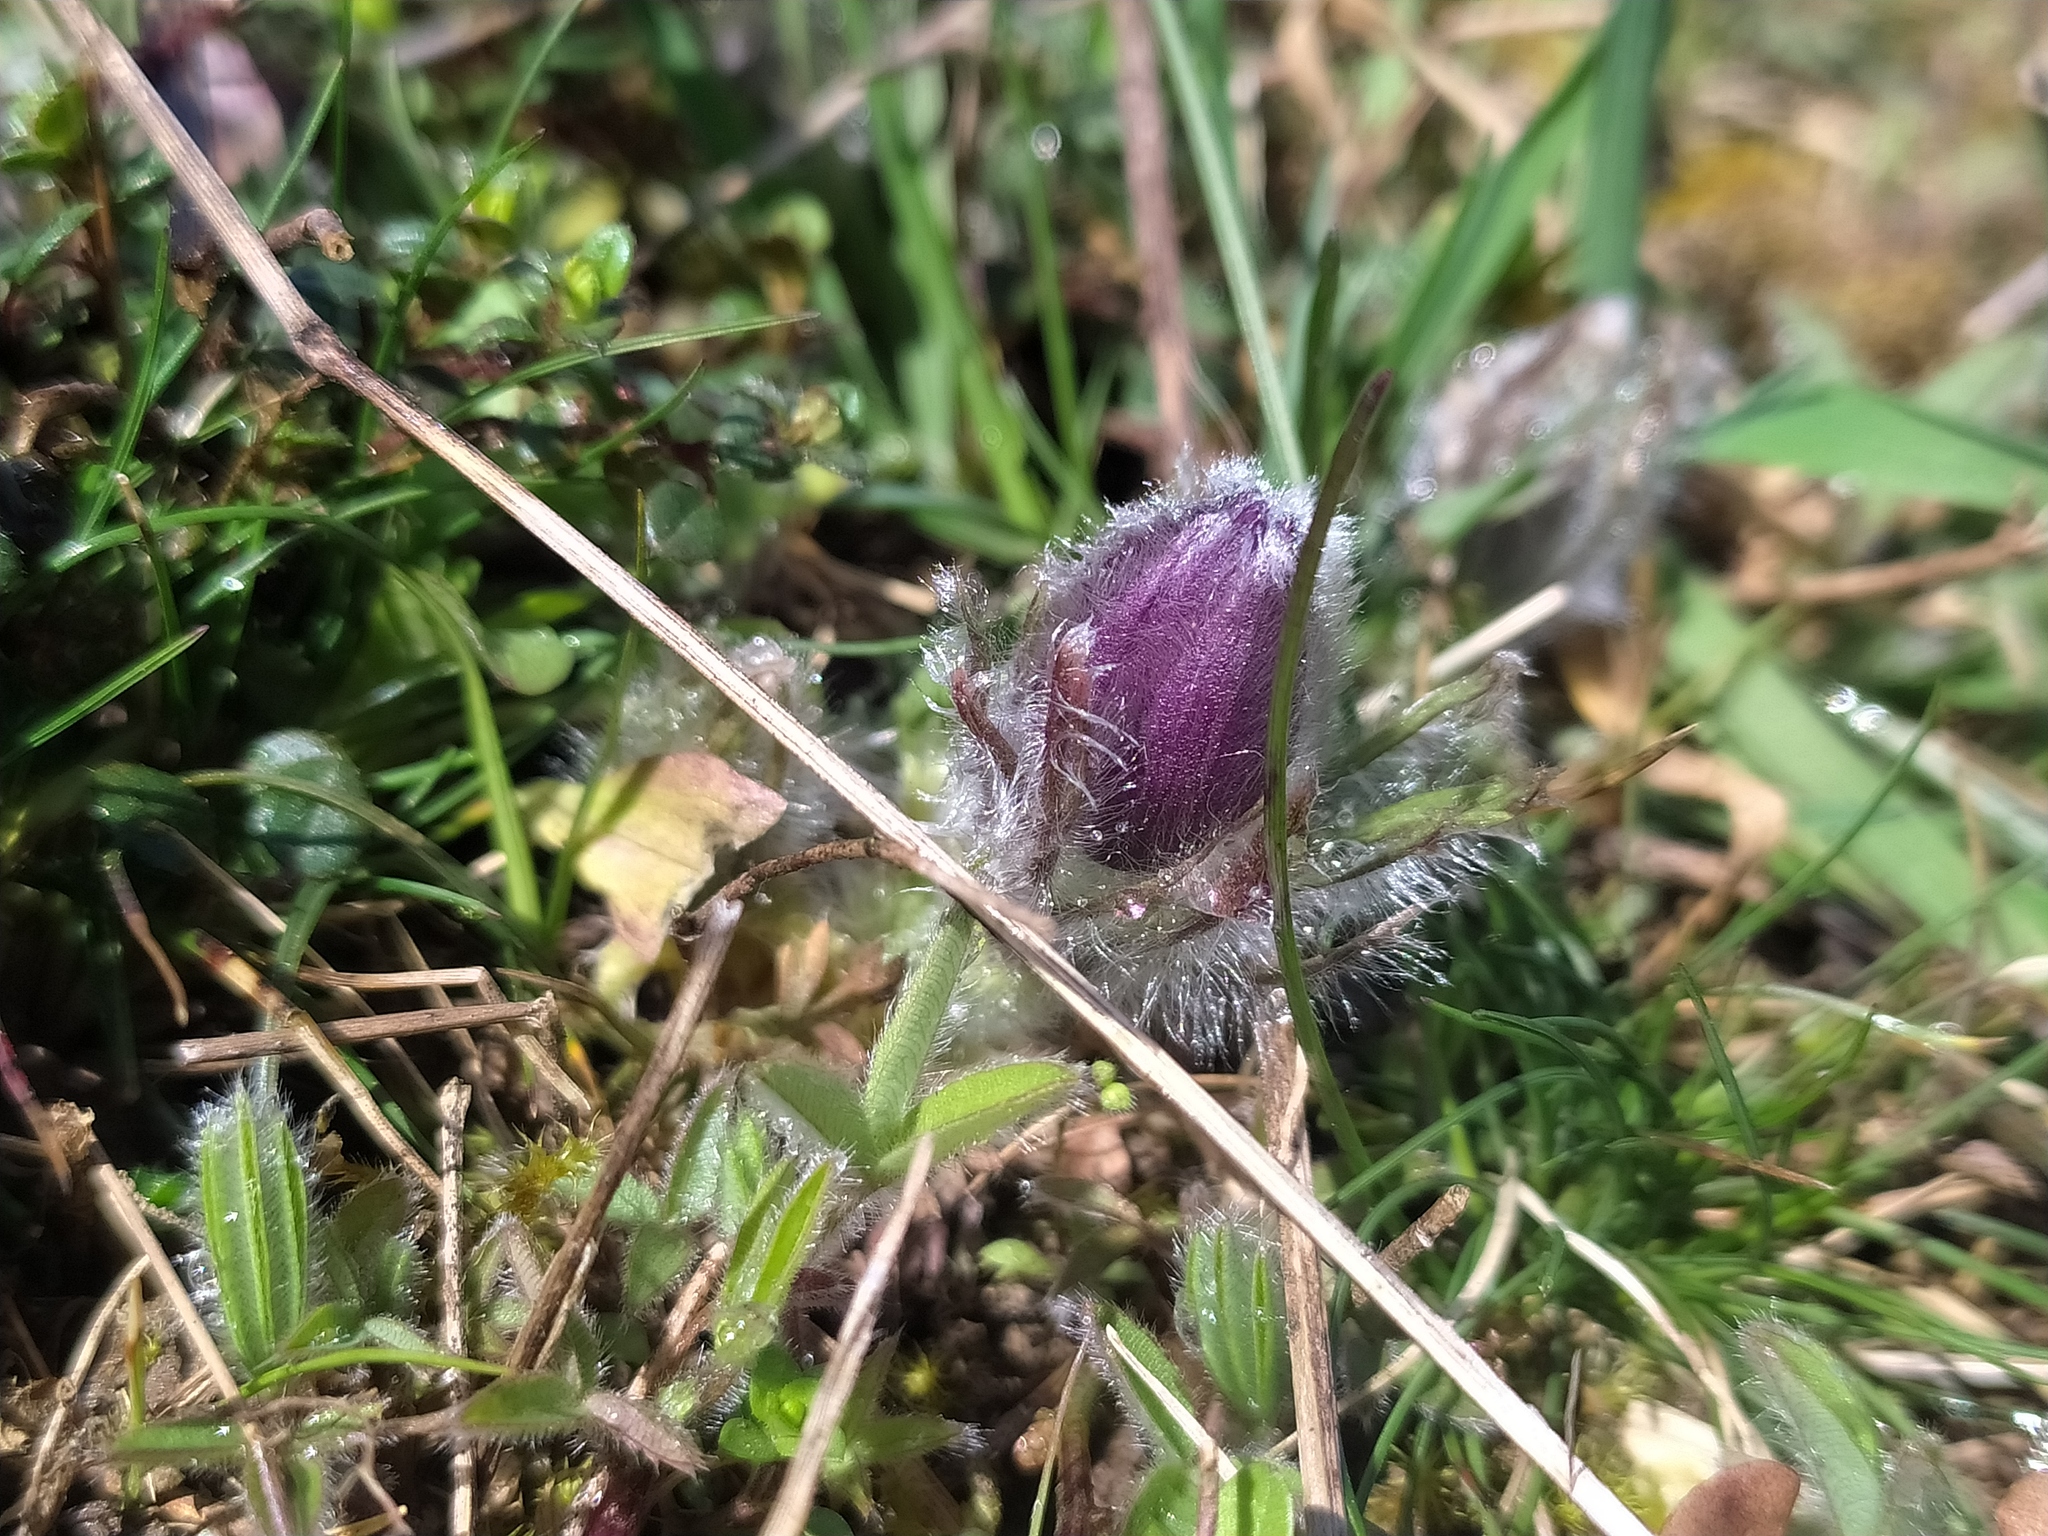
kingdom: Plantae
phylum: Tracheophyta
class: Magnoliopsida
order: Ranunculales
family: Ranunculaceae
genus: Pulsatilla
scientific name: Pulsatilla vulgaris
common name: Pasqueflower
